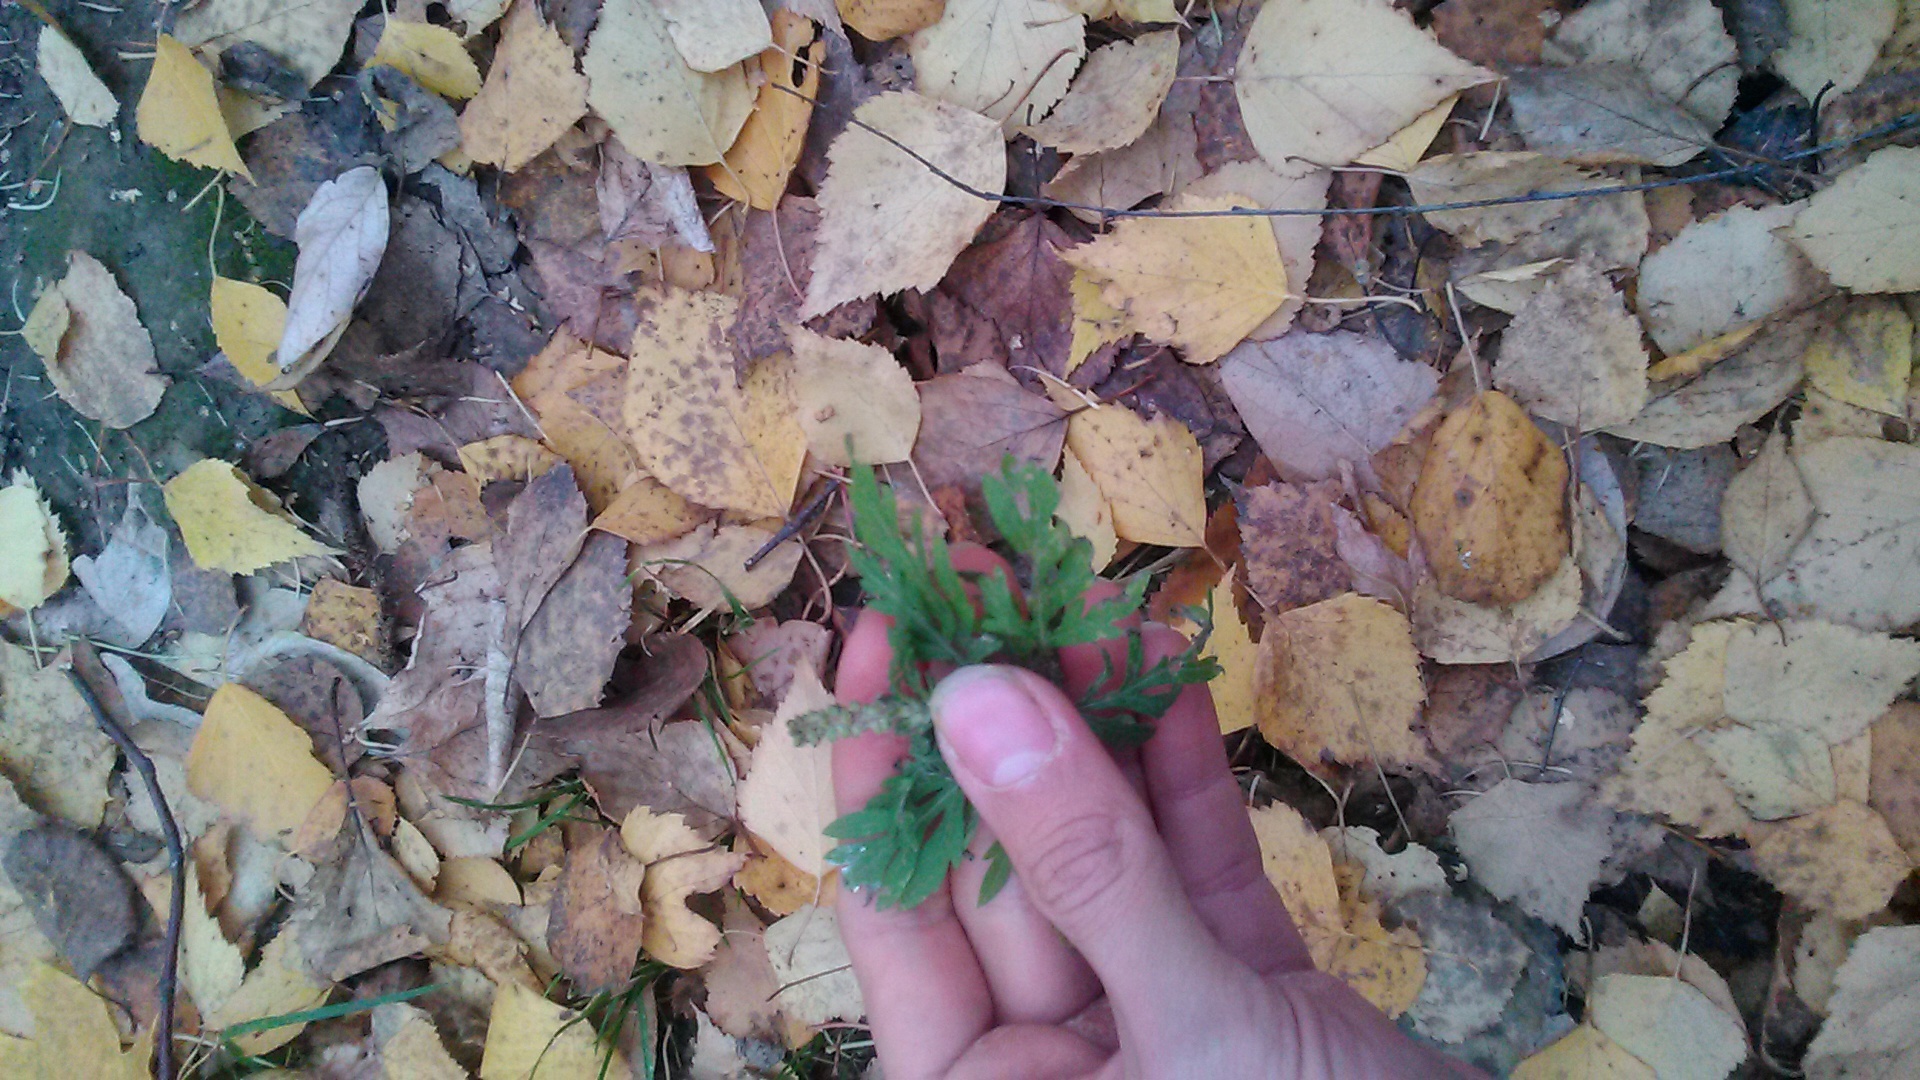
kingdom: Plantae
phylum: Tracheophyta
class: Magnoliopsida
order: Asterales
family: Asteraceae
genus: Ambrosia
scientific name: Ambrosia artemisiifolia
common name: Annual ragweed
